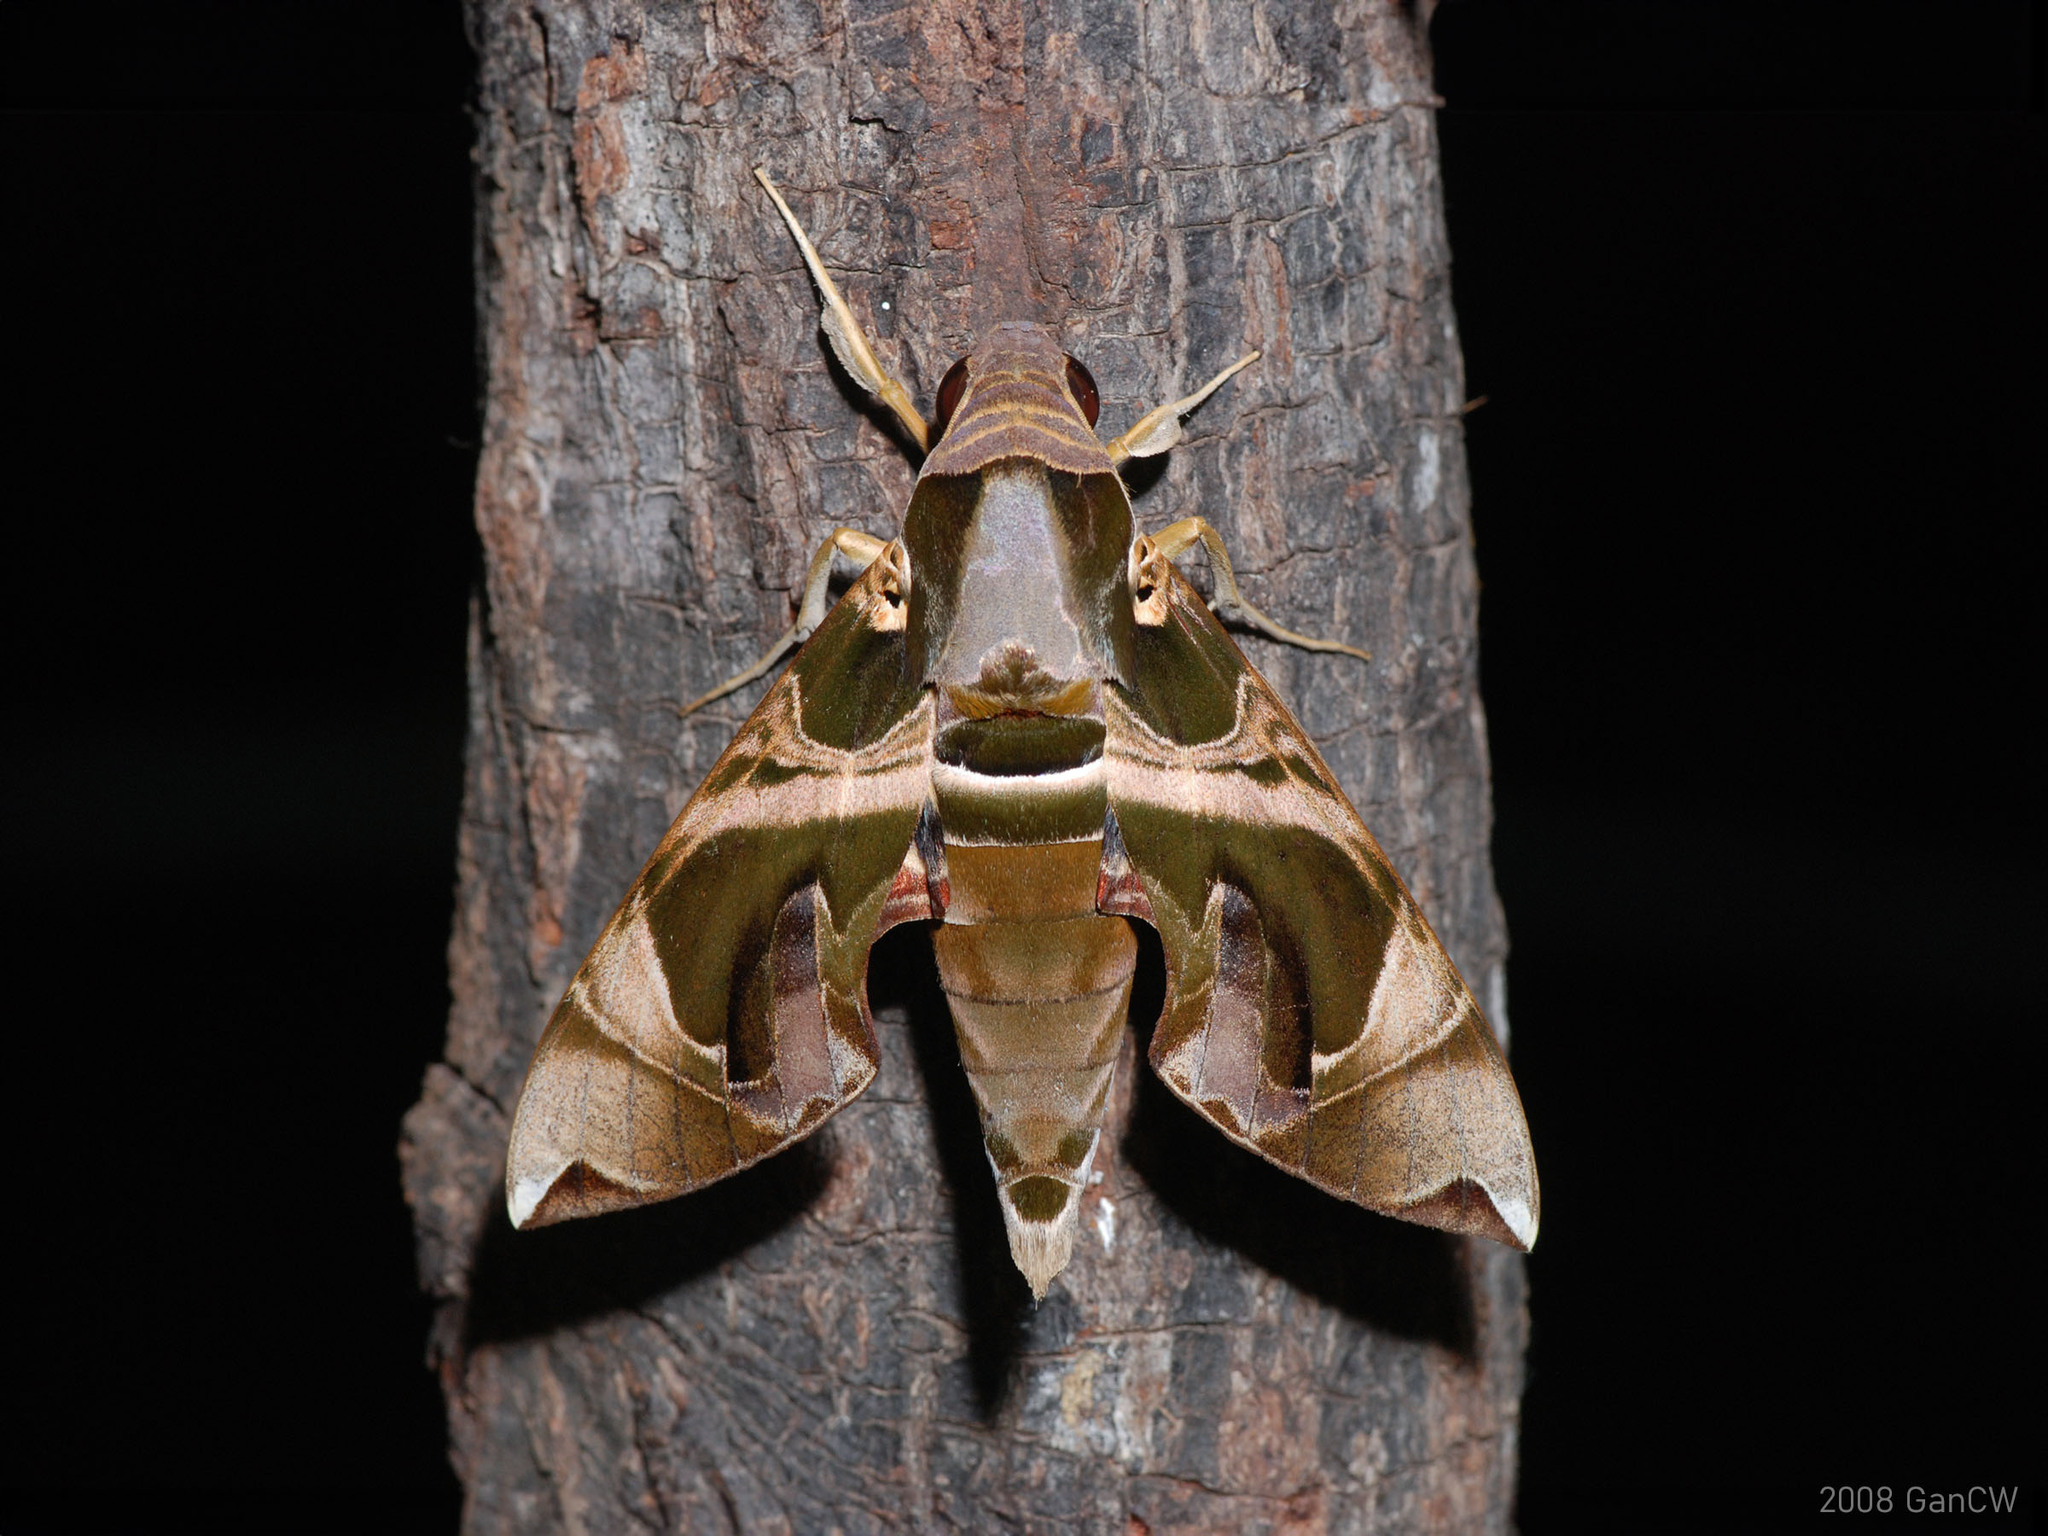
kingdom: Animalia
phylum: Arthropoda
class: Insecta
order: Lepidoptera
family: Sphingidae
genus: Daphnis
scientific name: Daphnis hypothous
